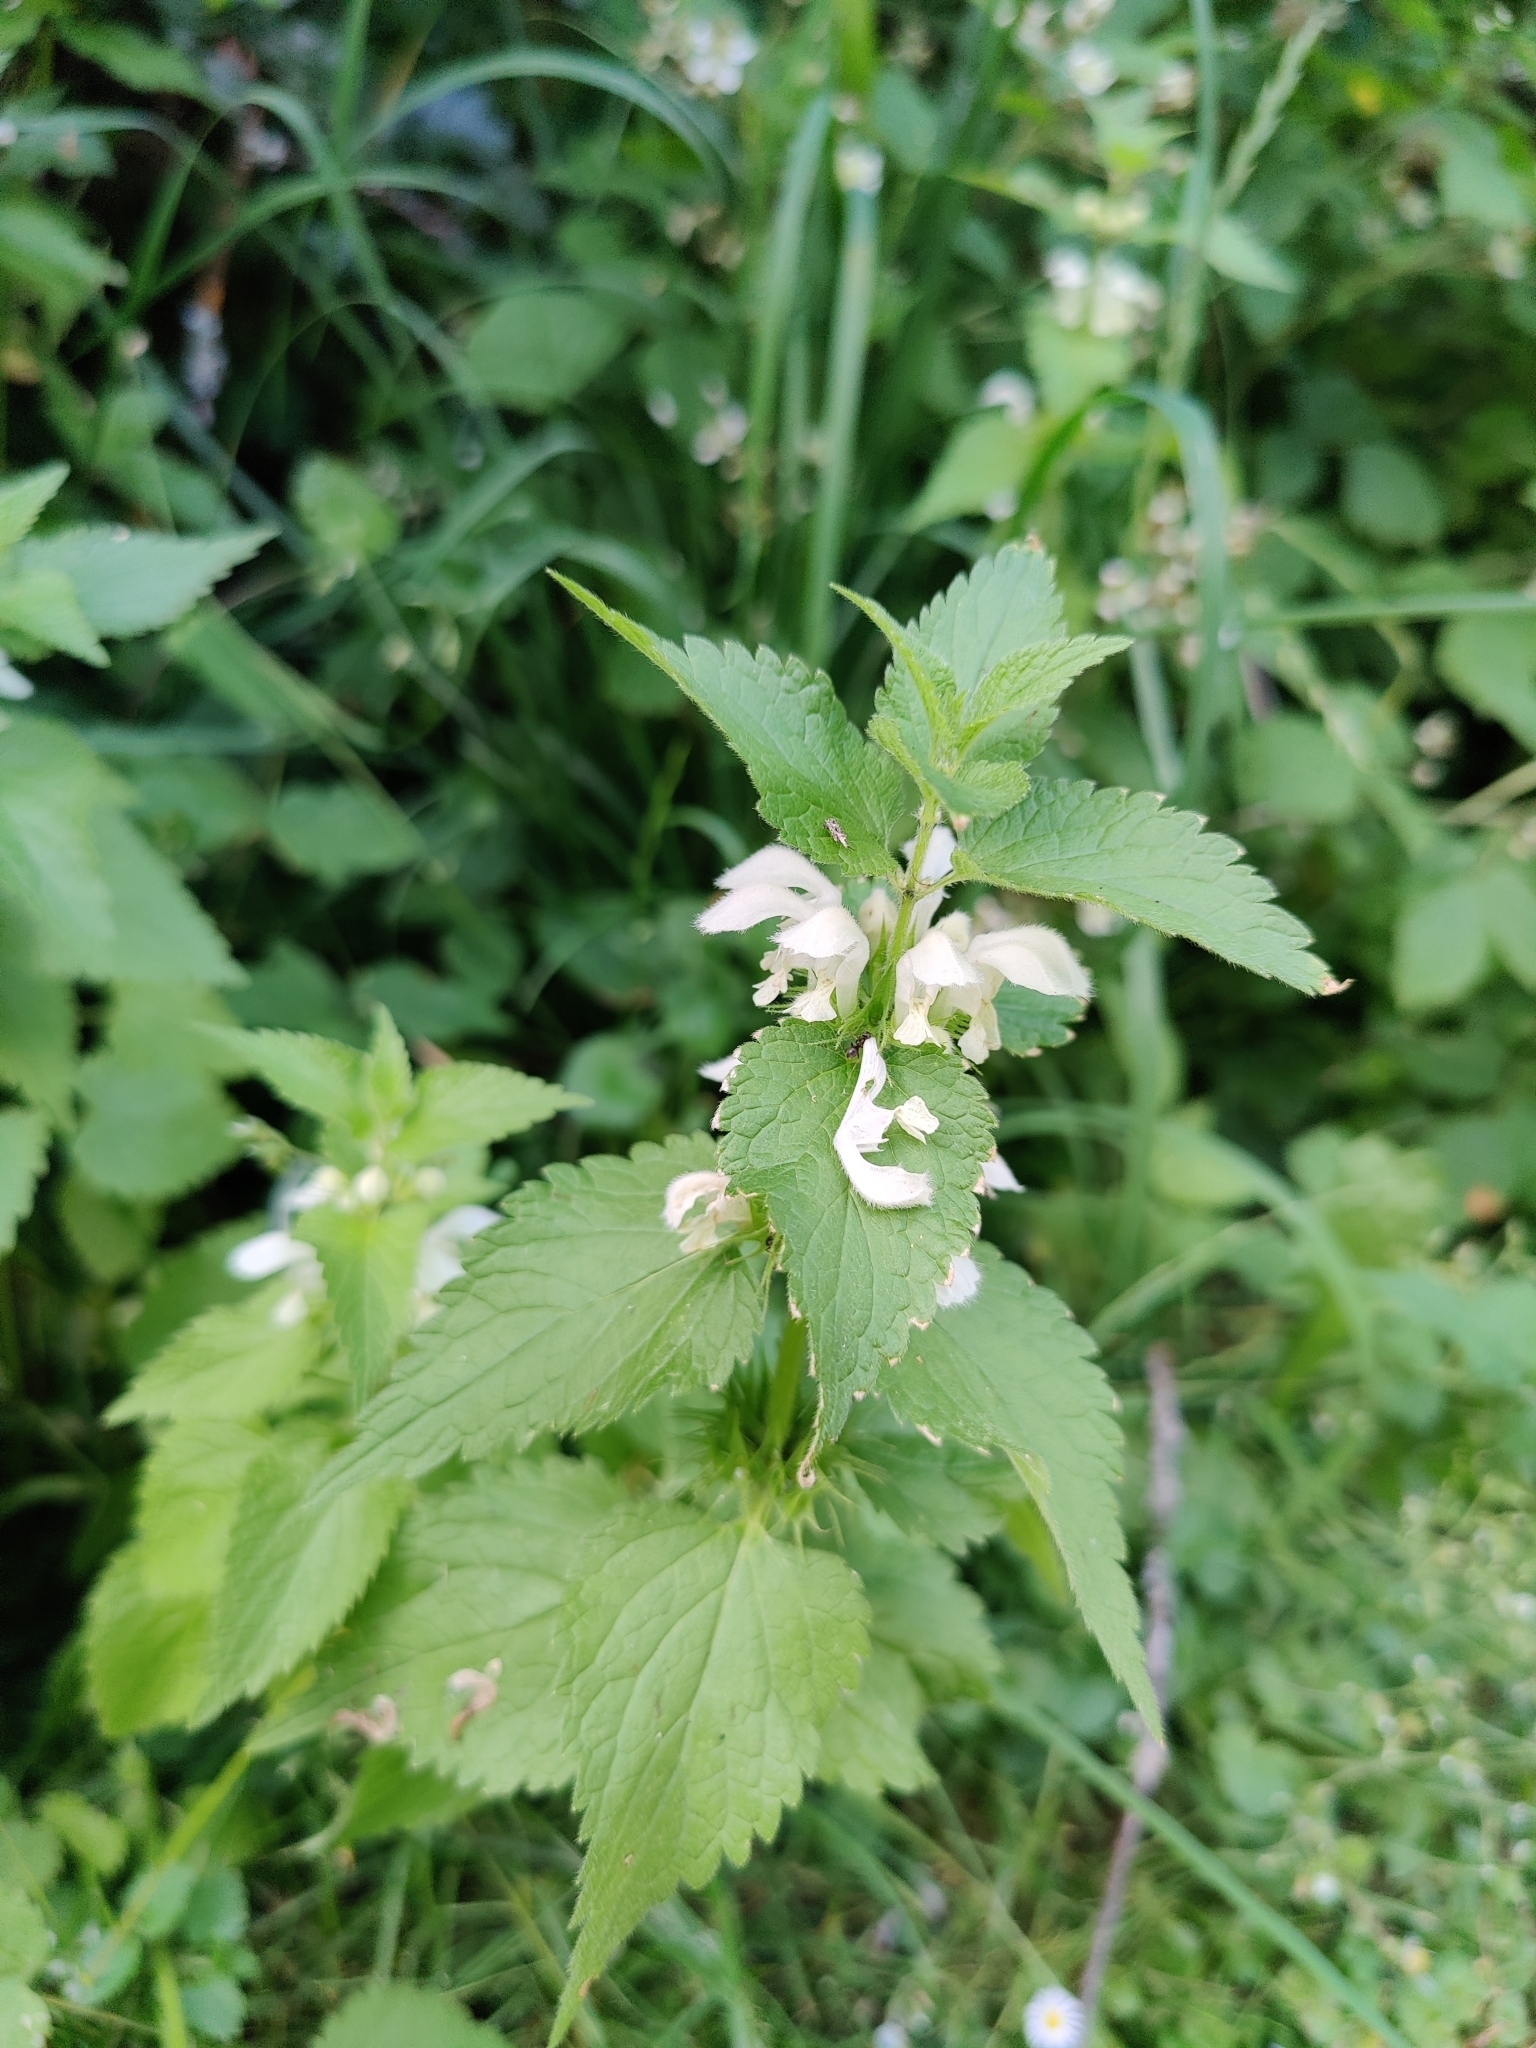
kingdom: Plantae
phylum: Tracheophyta
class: Magnoliopsida
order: Lamiales
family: Lamiaceae
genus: Lamium
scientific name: Lamium album
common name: White dead-nettle
